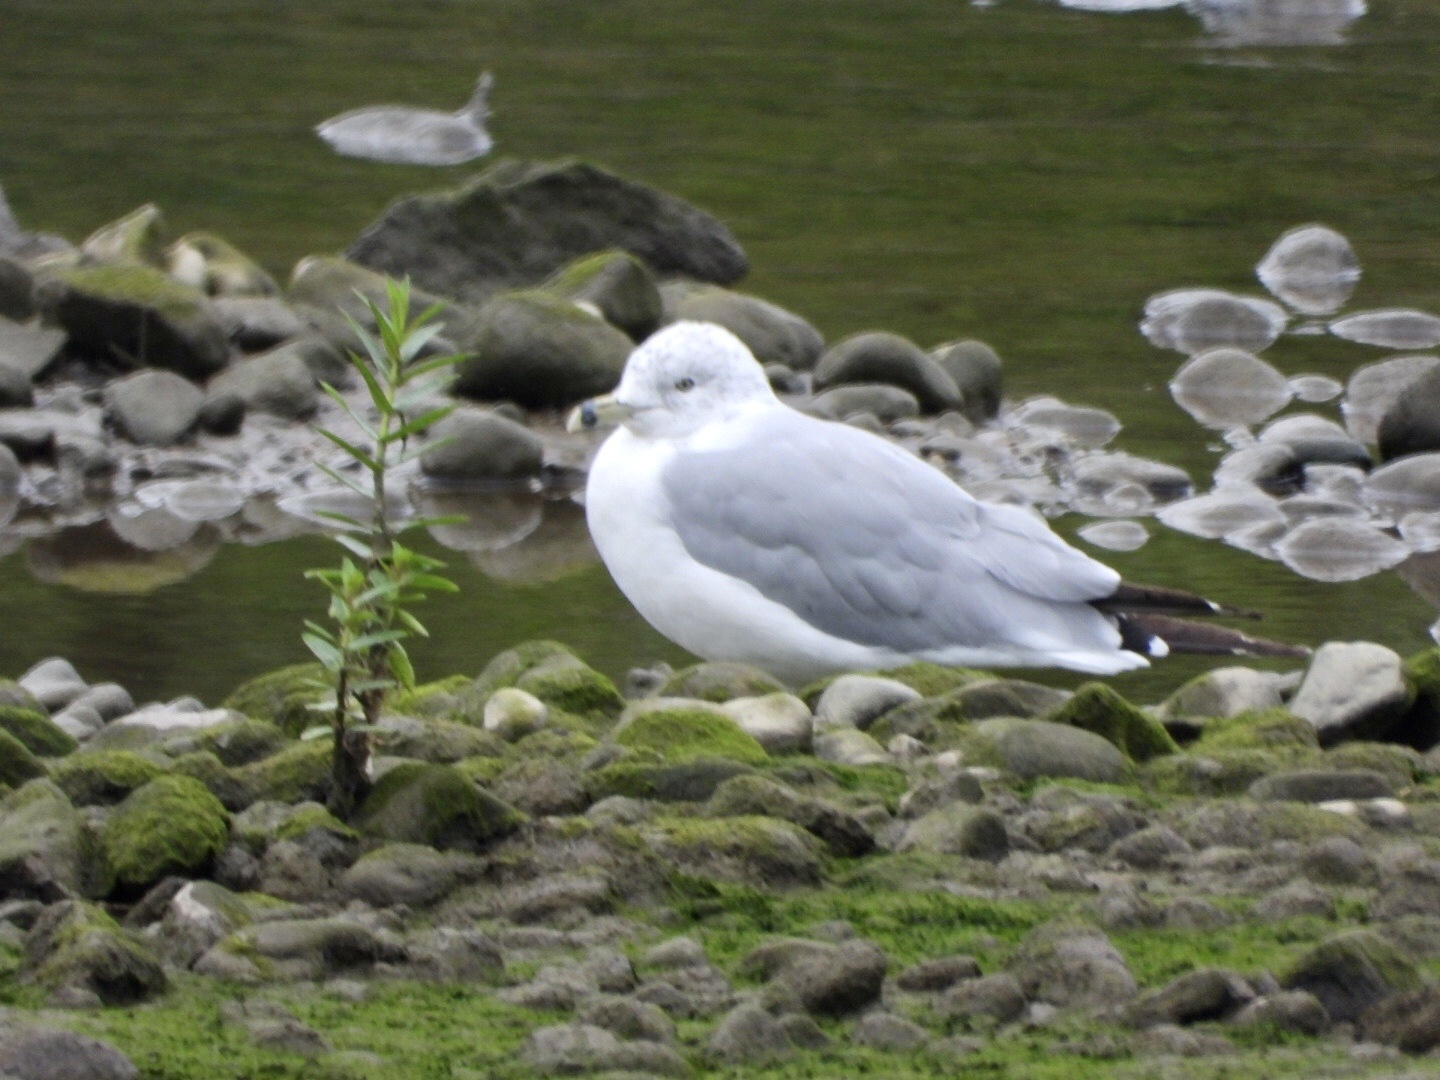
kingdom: Animalia
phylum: Chordata
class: Aves
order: Charadriiformes
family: Laridae
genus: Larus
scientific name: Larus delawarensis
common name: Ring-billed gull
